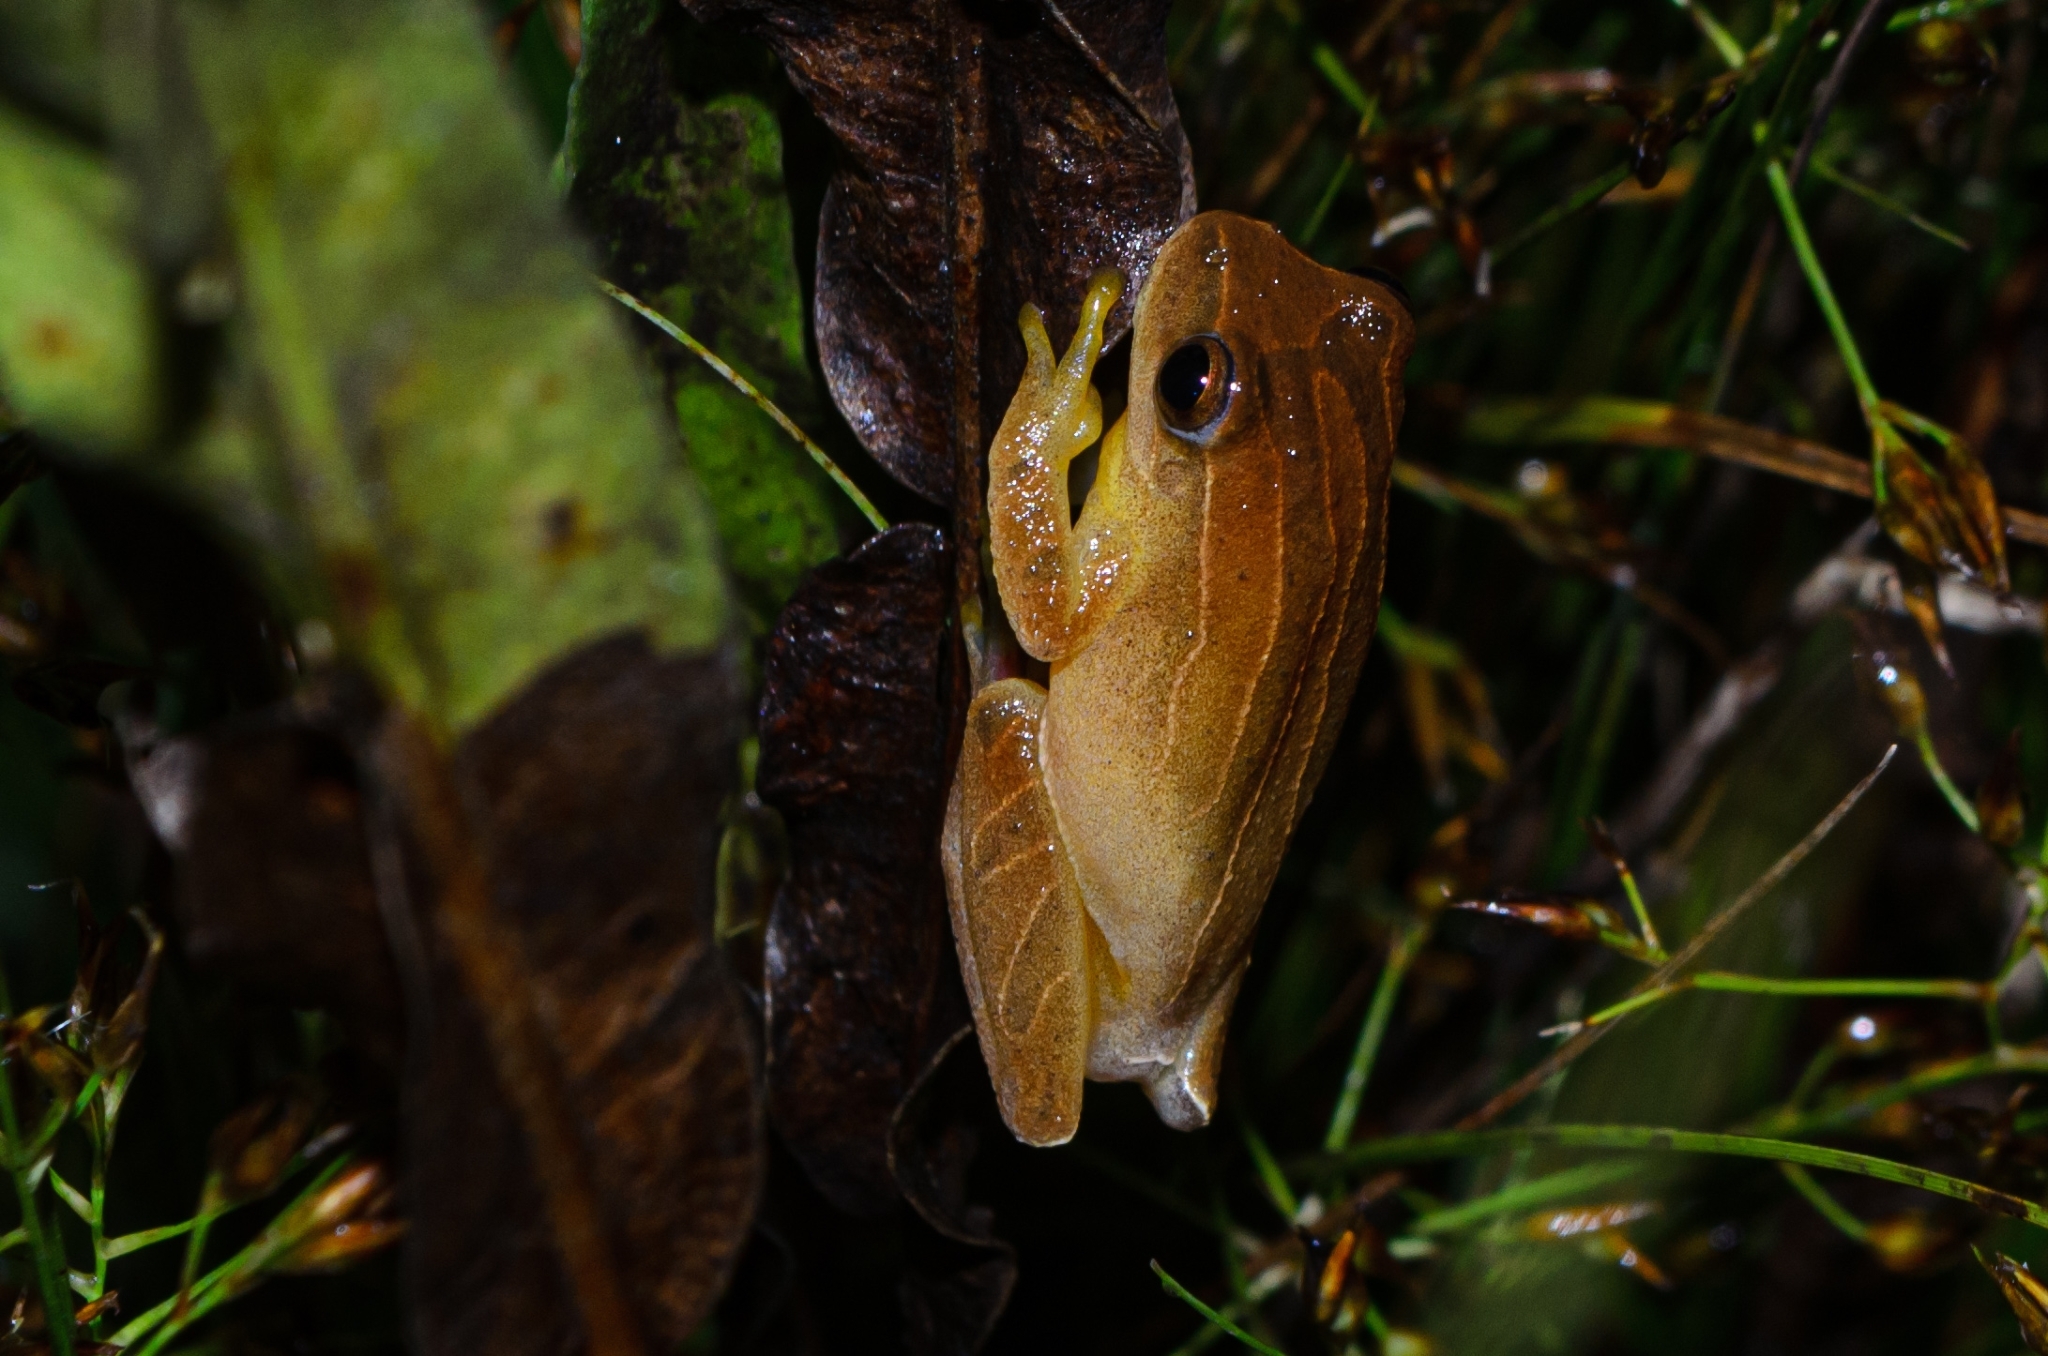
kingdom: Animalia
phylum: Chordata
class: Amphibia
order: Anura
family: Hylidae
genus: Dendropsophus
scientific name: Dendropsophus minutus
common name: Lesser treefrog
